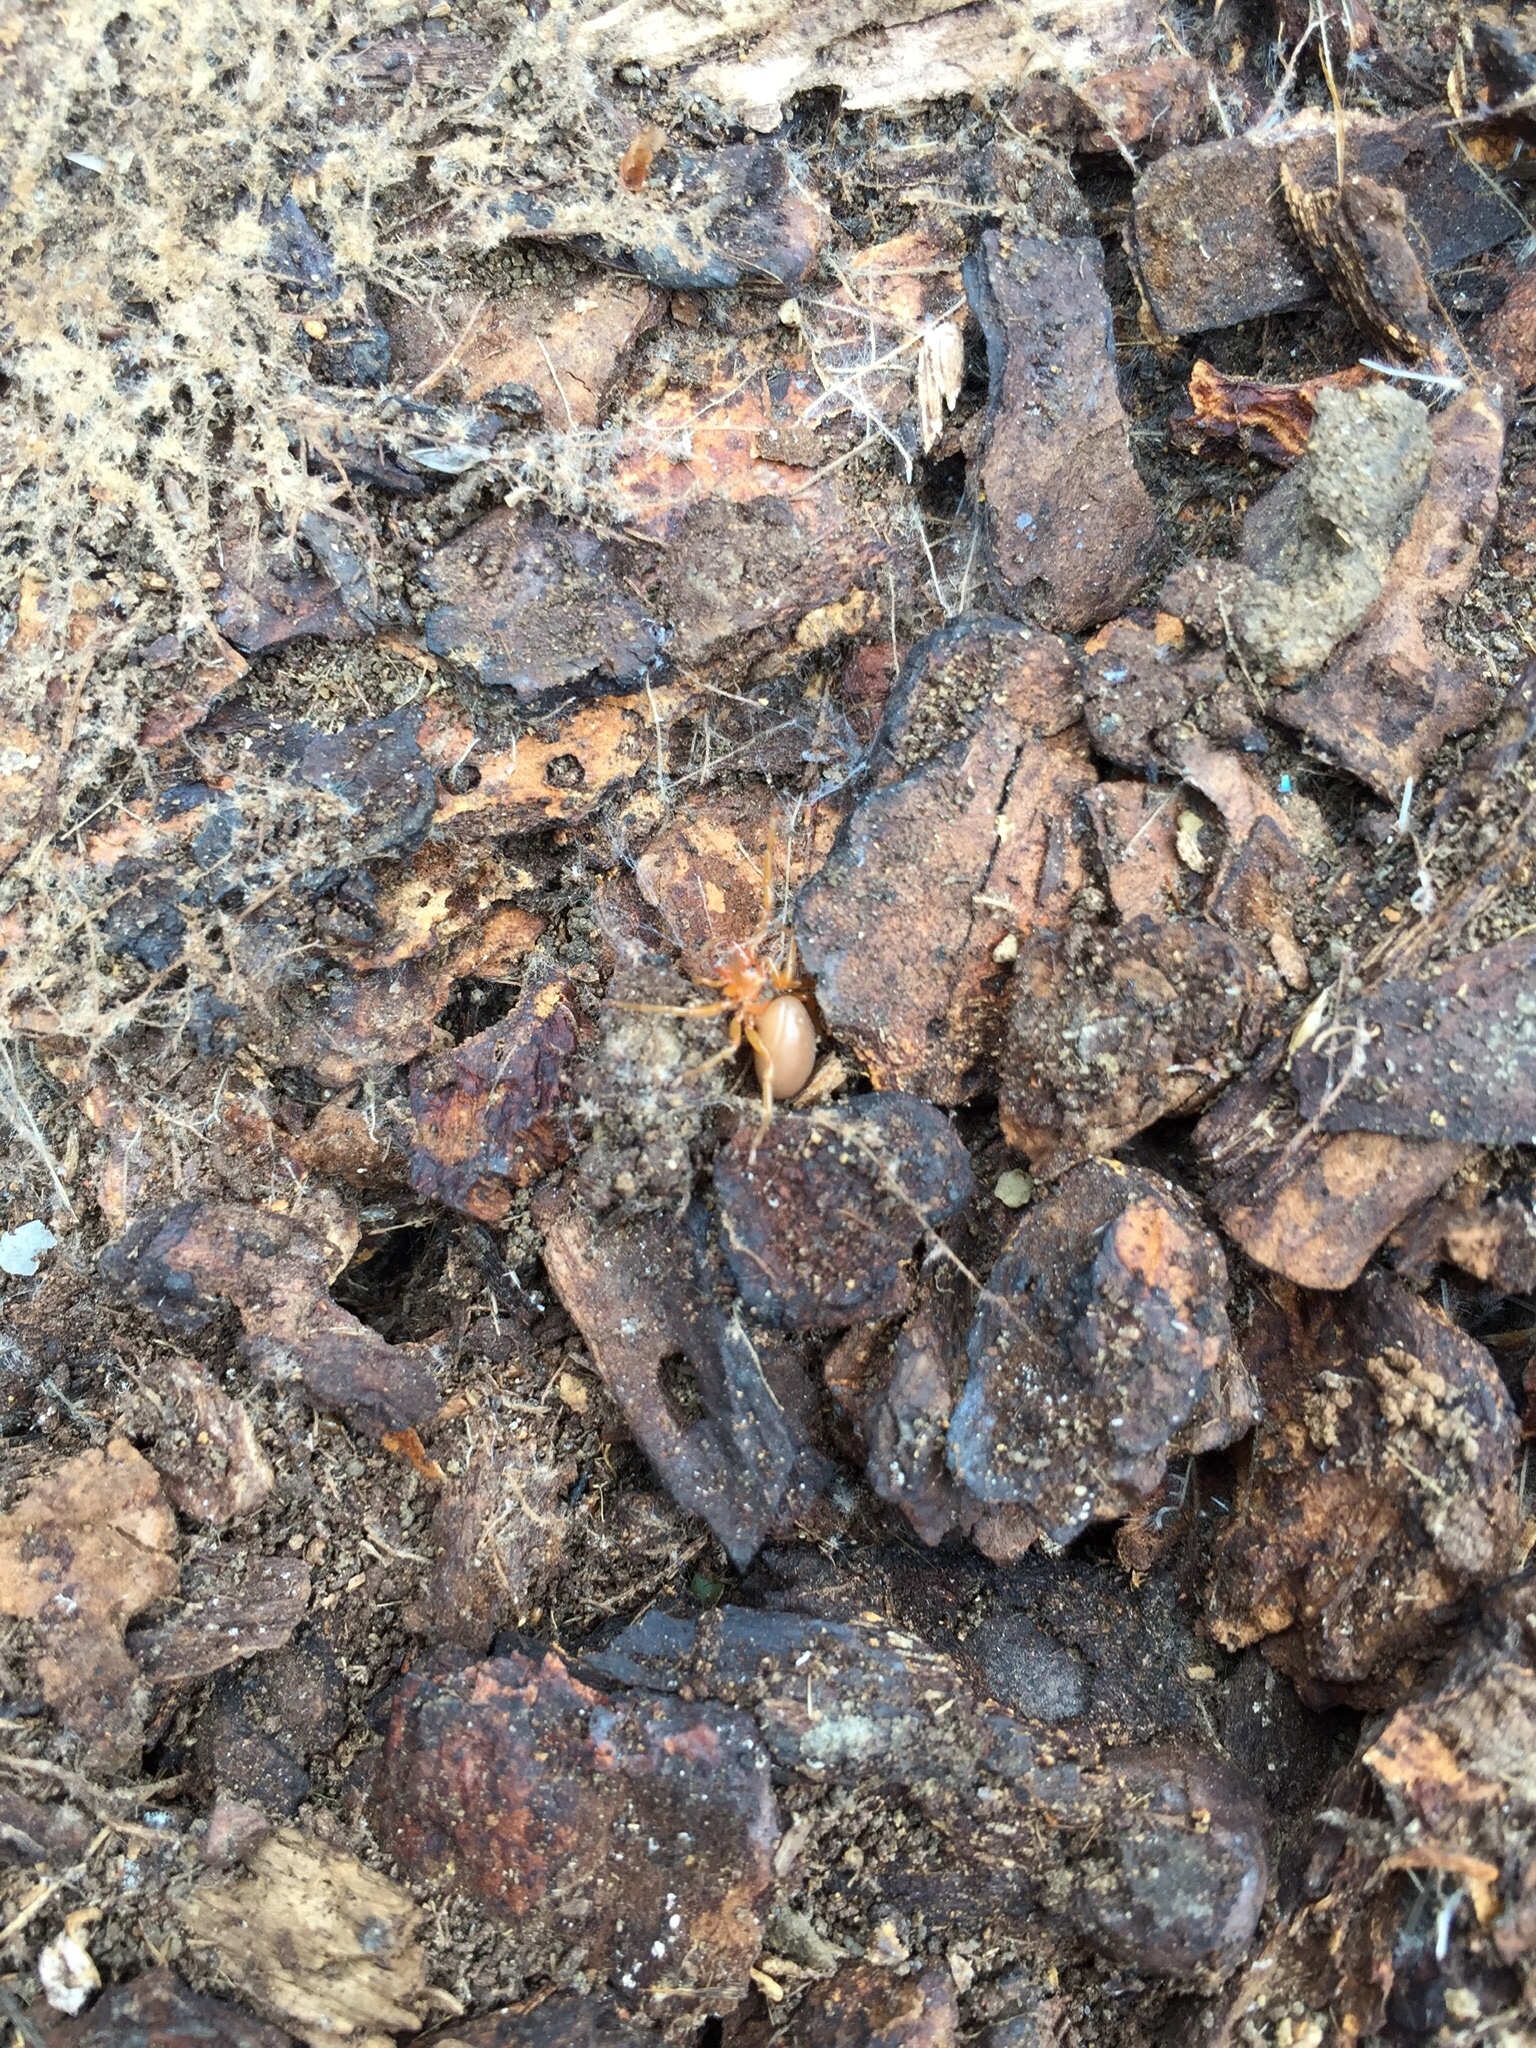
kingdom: Animalia
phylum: Arthropoda
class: Arachnida
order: Araneae
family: Dysderidae
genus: Dysdera
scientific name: Dysdera crocata
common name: Woodlouse spider
